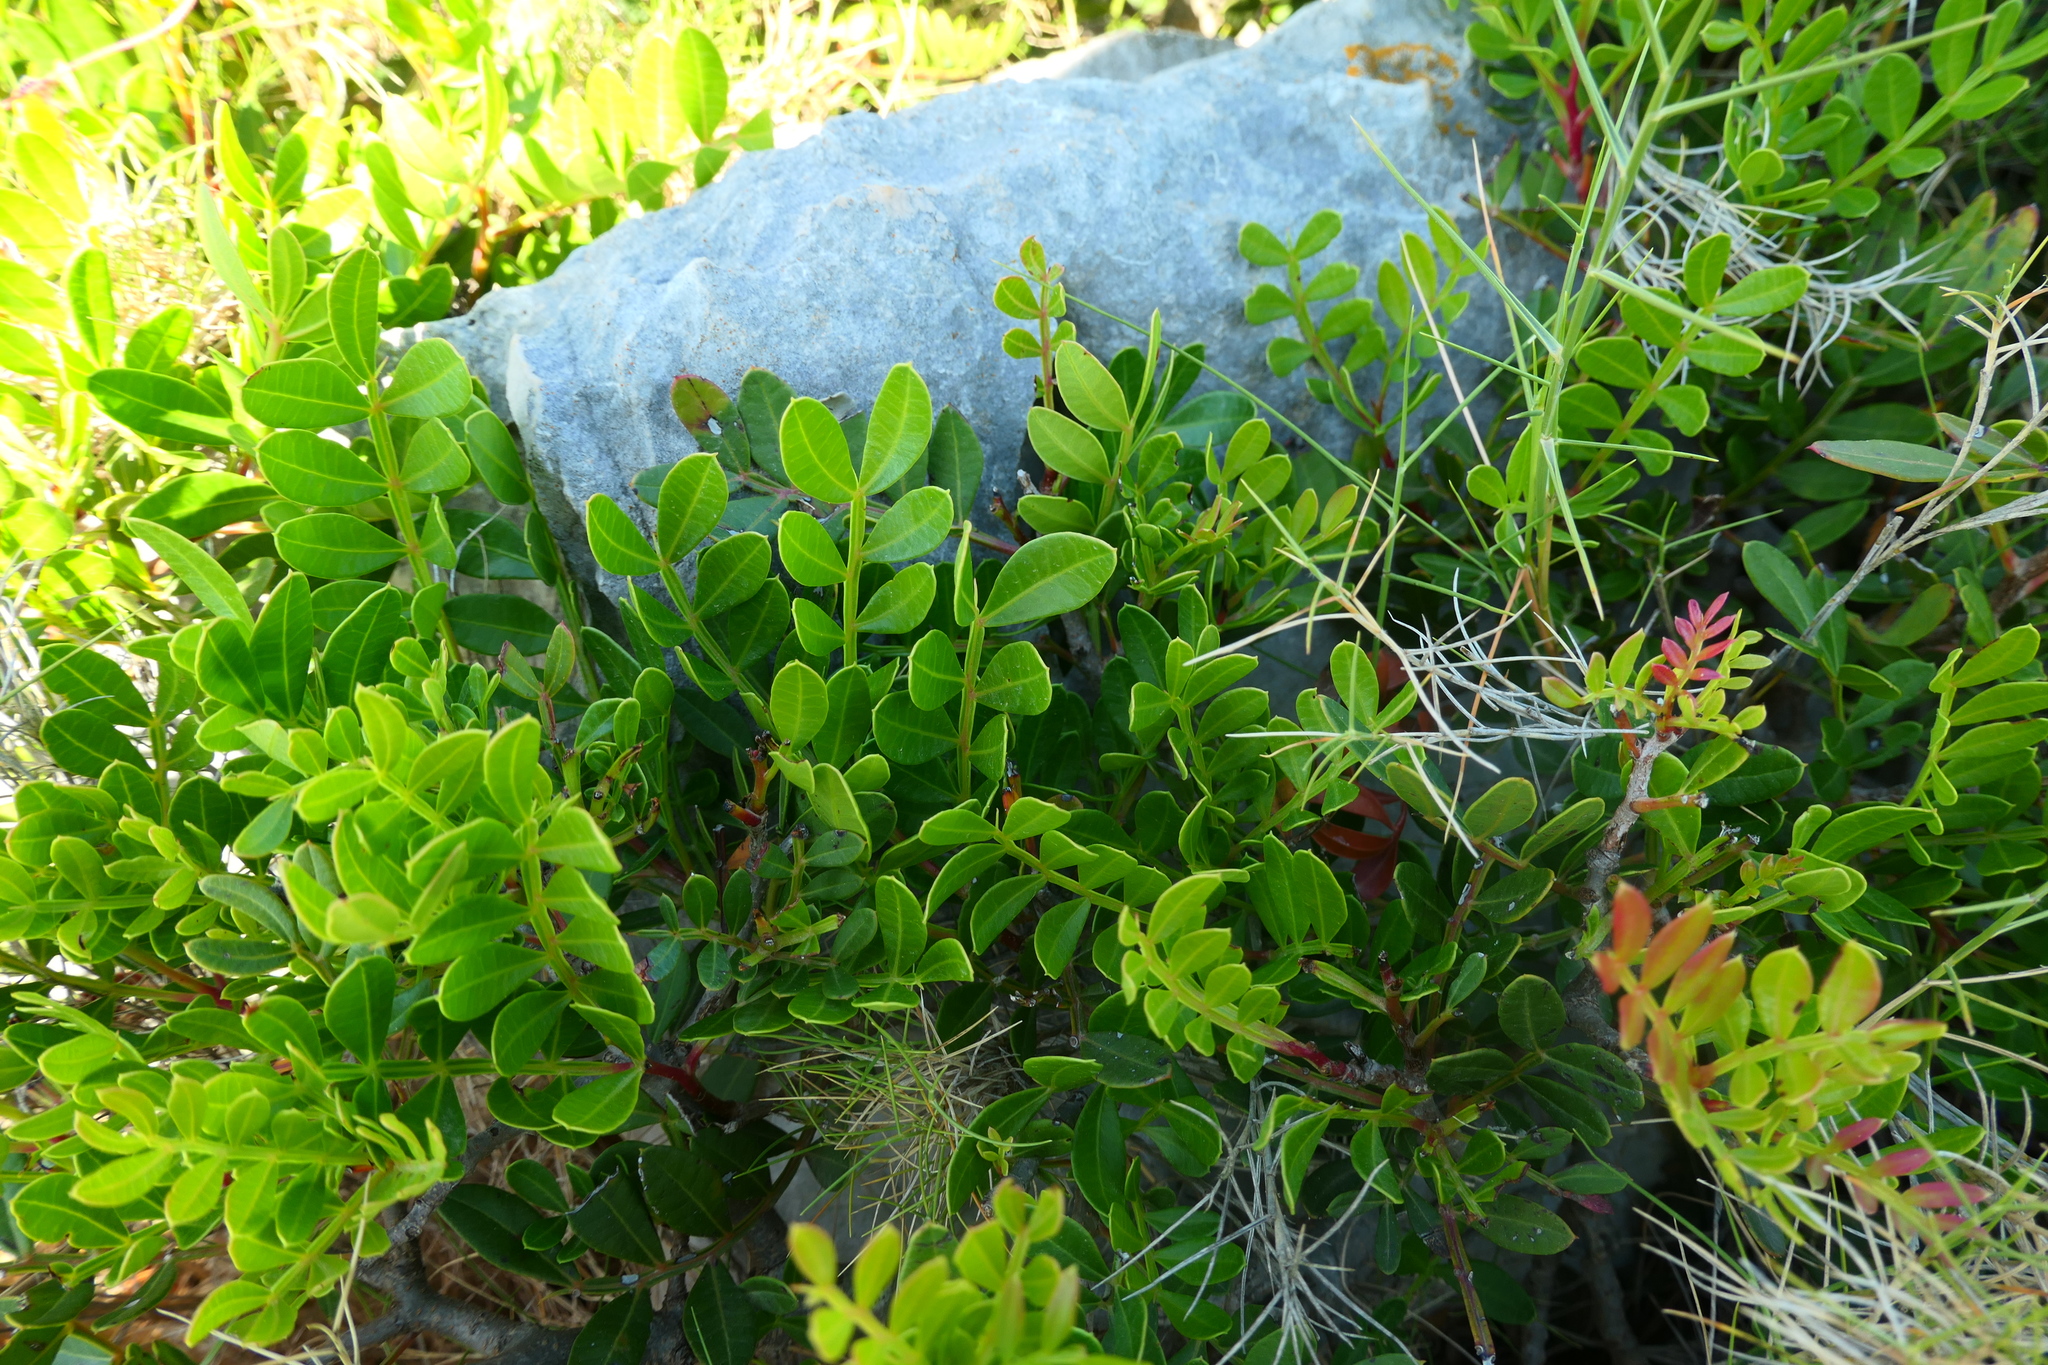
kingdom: Plantae
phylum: Tracheophyta
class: Magnoliopsida
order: Sapindales
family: Anacardiaceae
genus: Pistacia
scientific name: Pistacia lentiscus
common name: Lentisk
